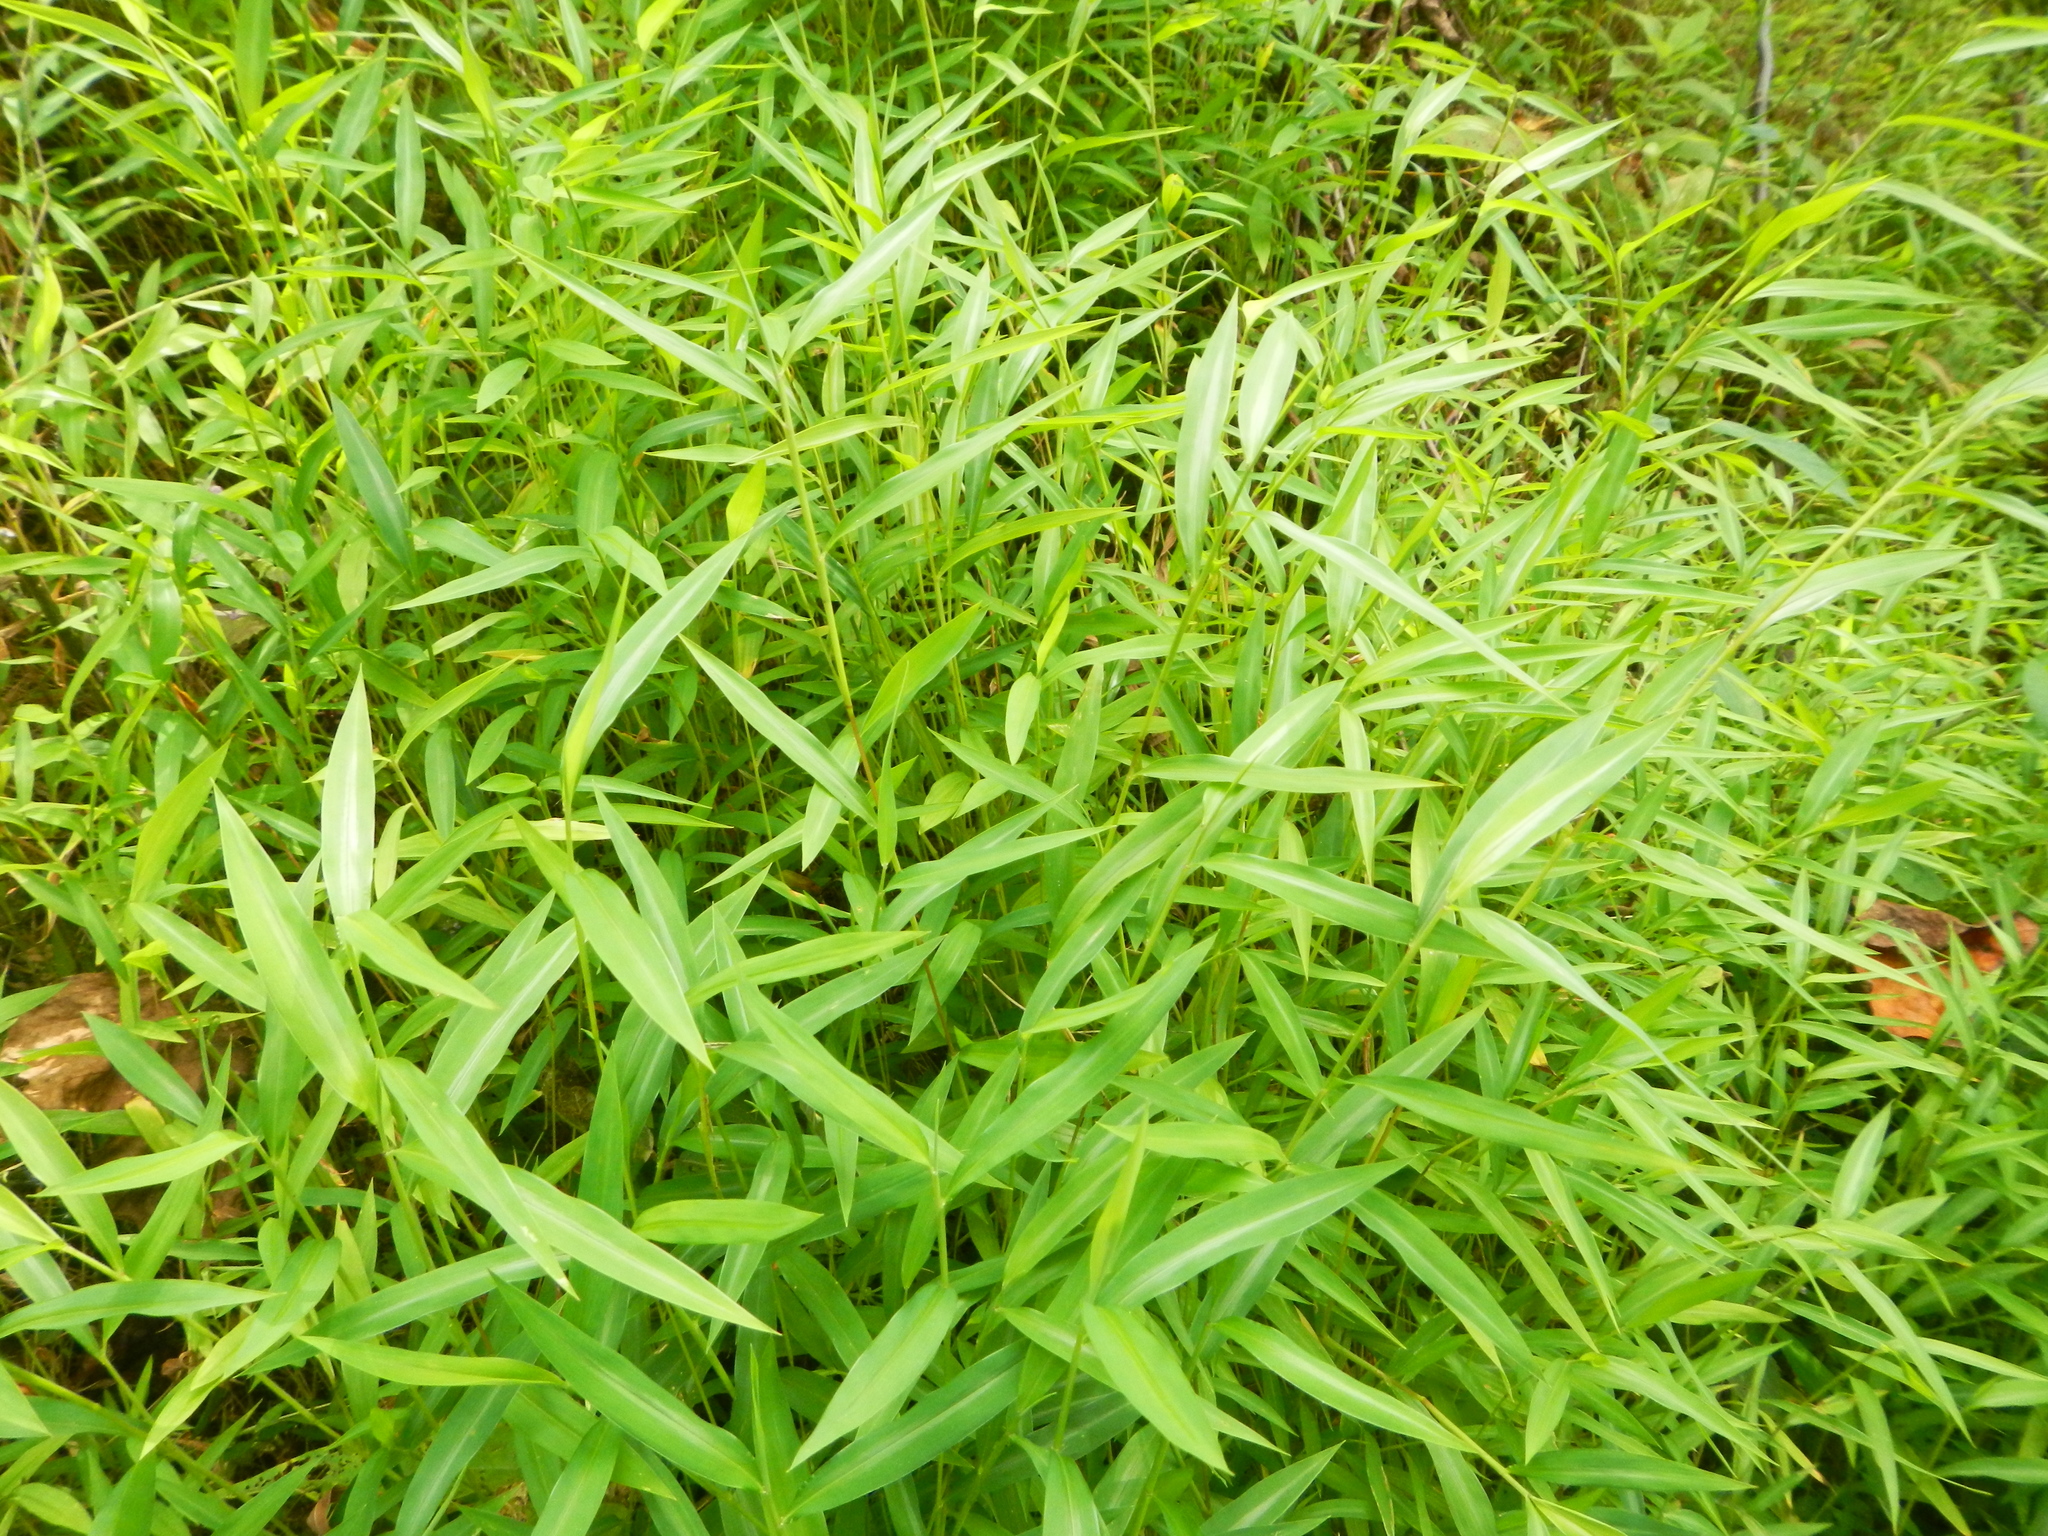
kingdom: Plantae
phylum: Tracheophyta
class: Liliopsida
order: Poales
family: Poaceae
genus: Microstegium
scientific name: Microstegium vimineum
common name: Japanese stiltgrass
